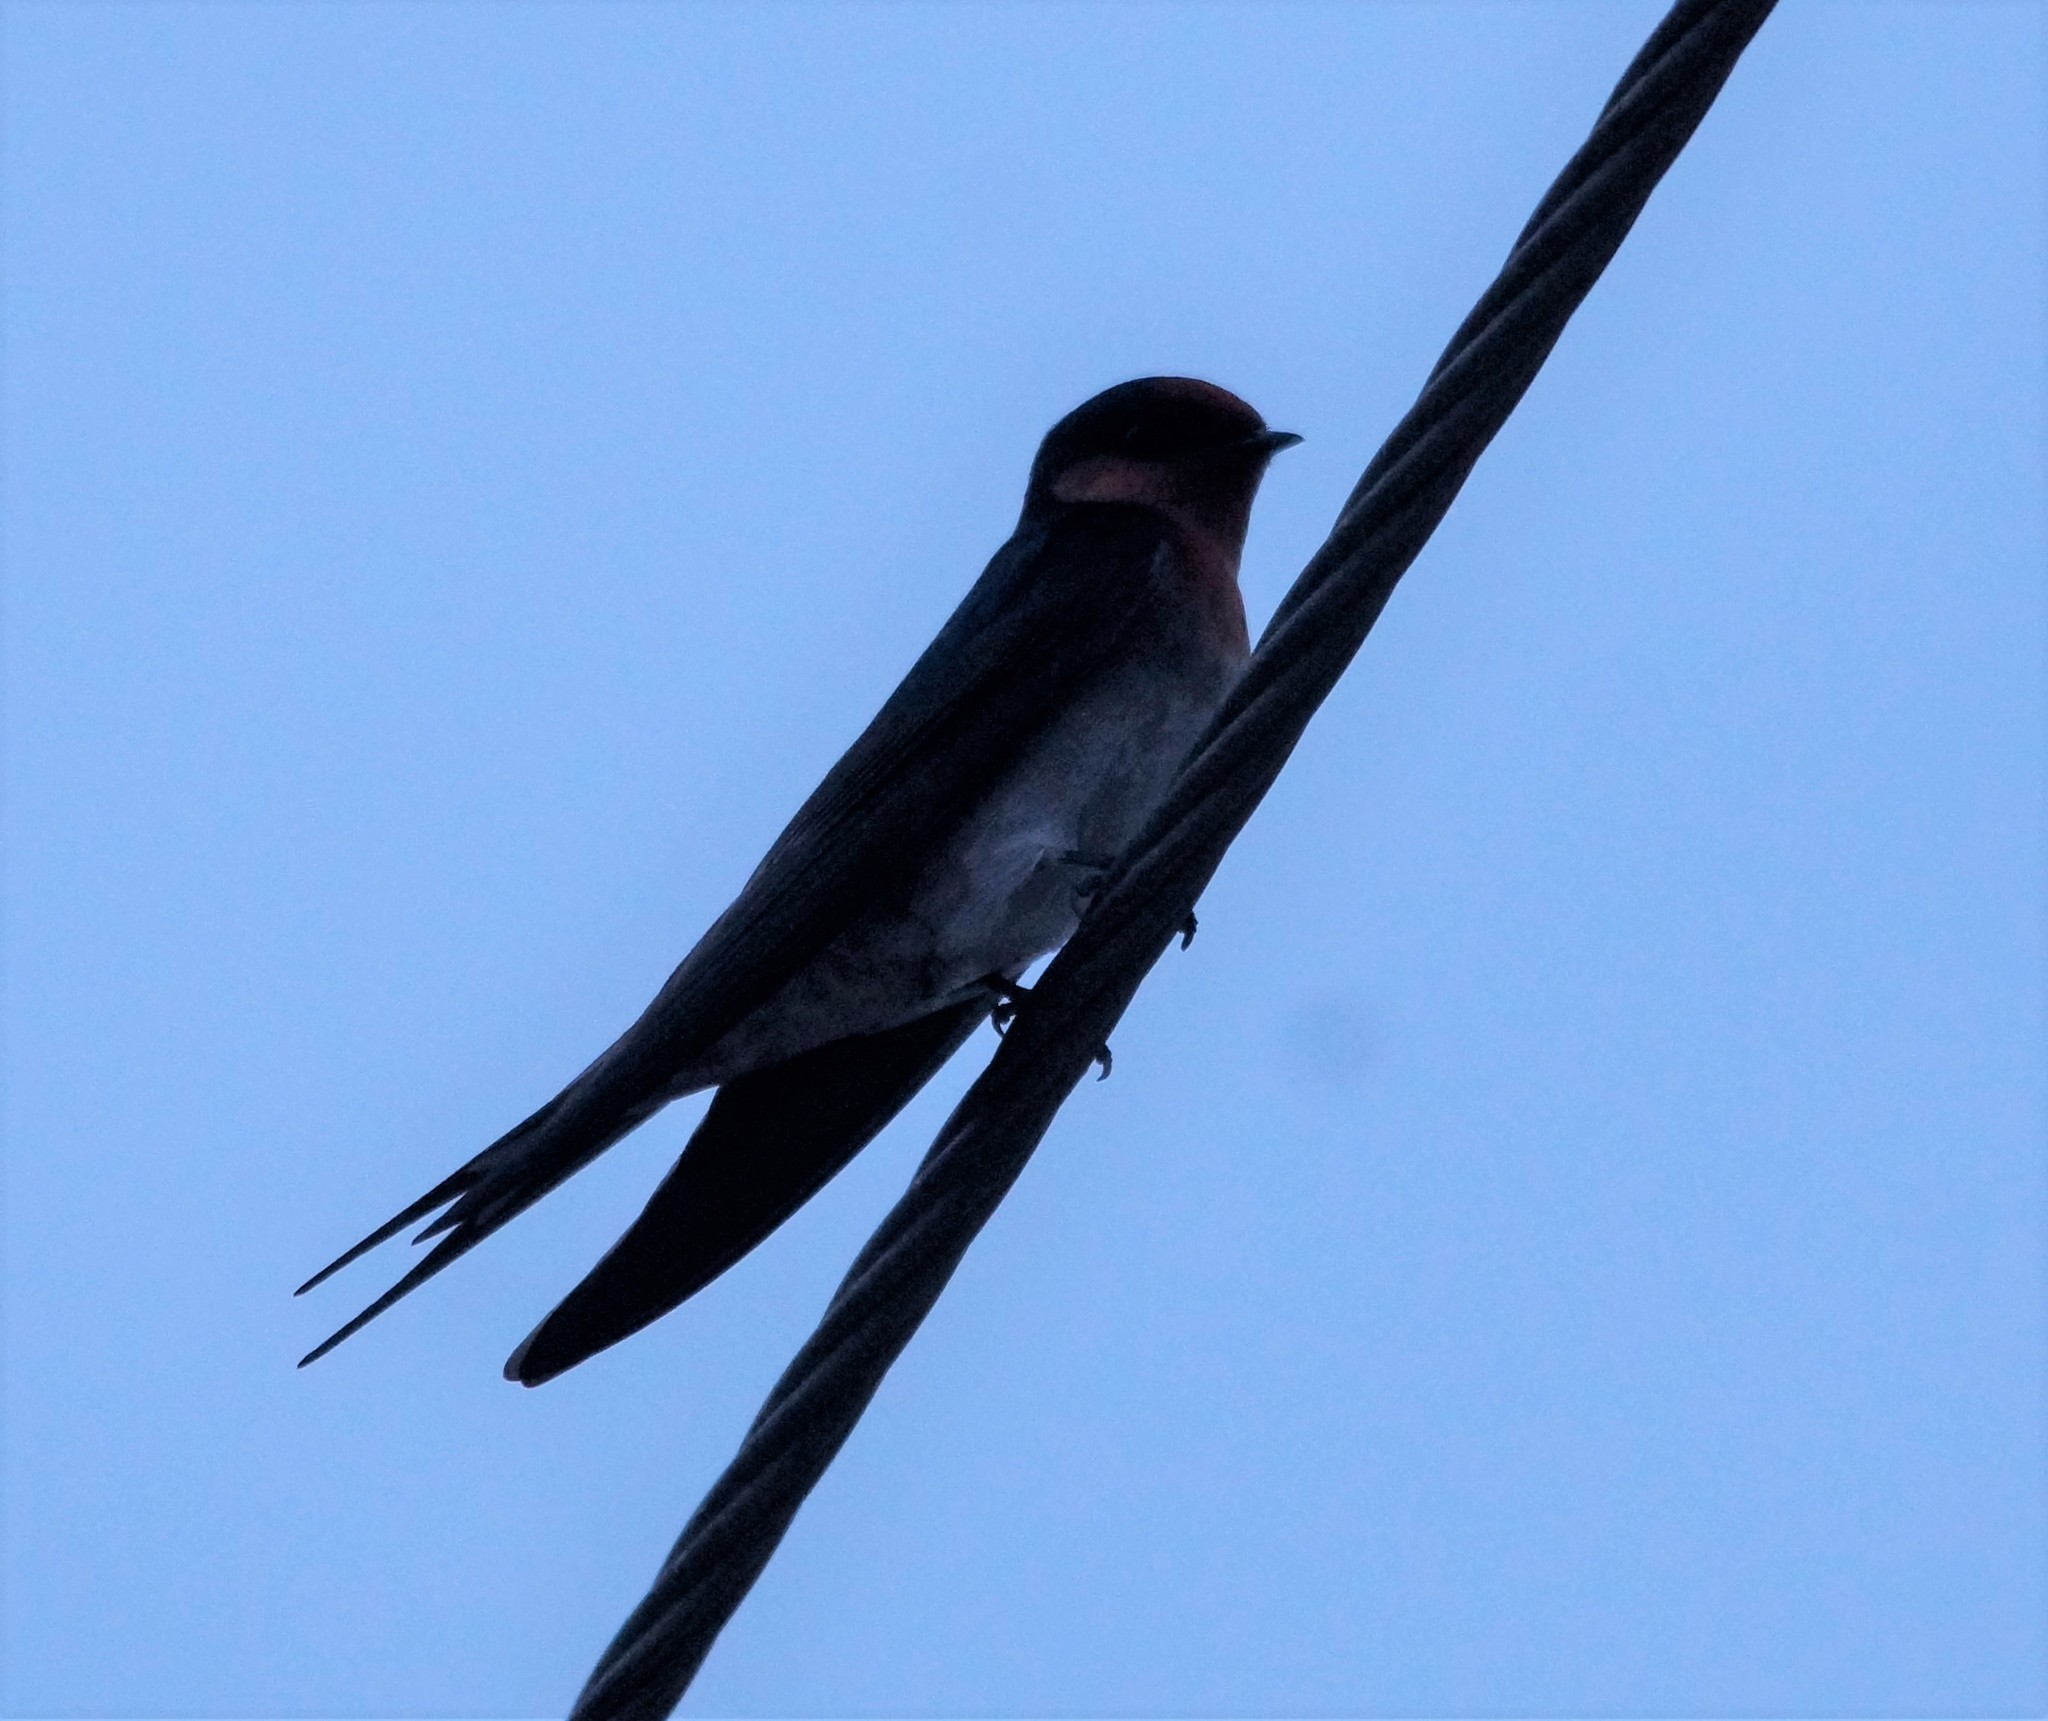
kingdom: Animalia
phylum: Chordata
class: Aves
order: Passeriformes
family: Hirundinidae
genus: Hirundo
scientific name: Hirundo neoxena
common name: Welcome swallow
